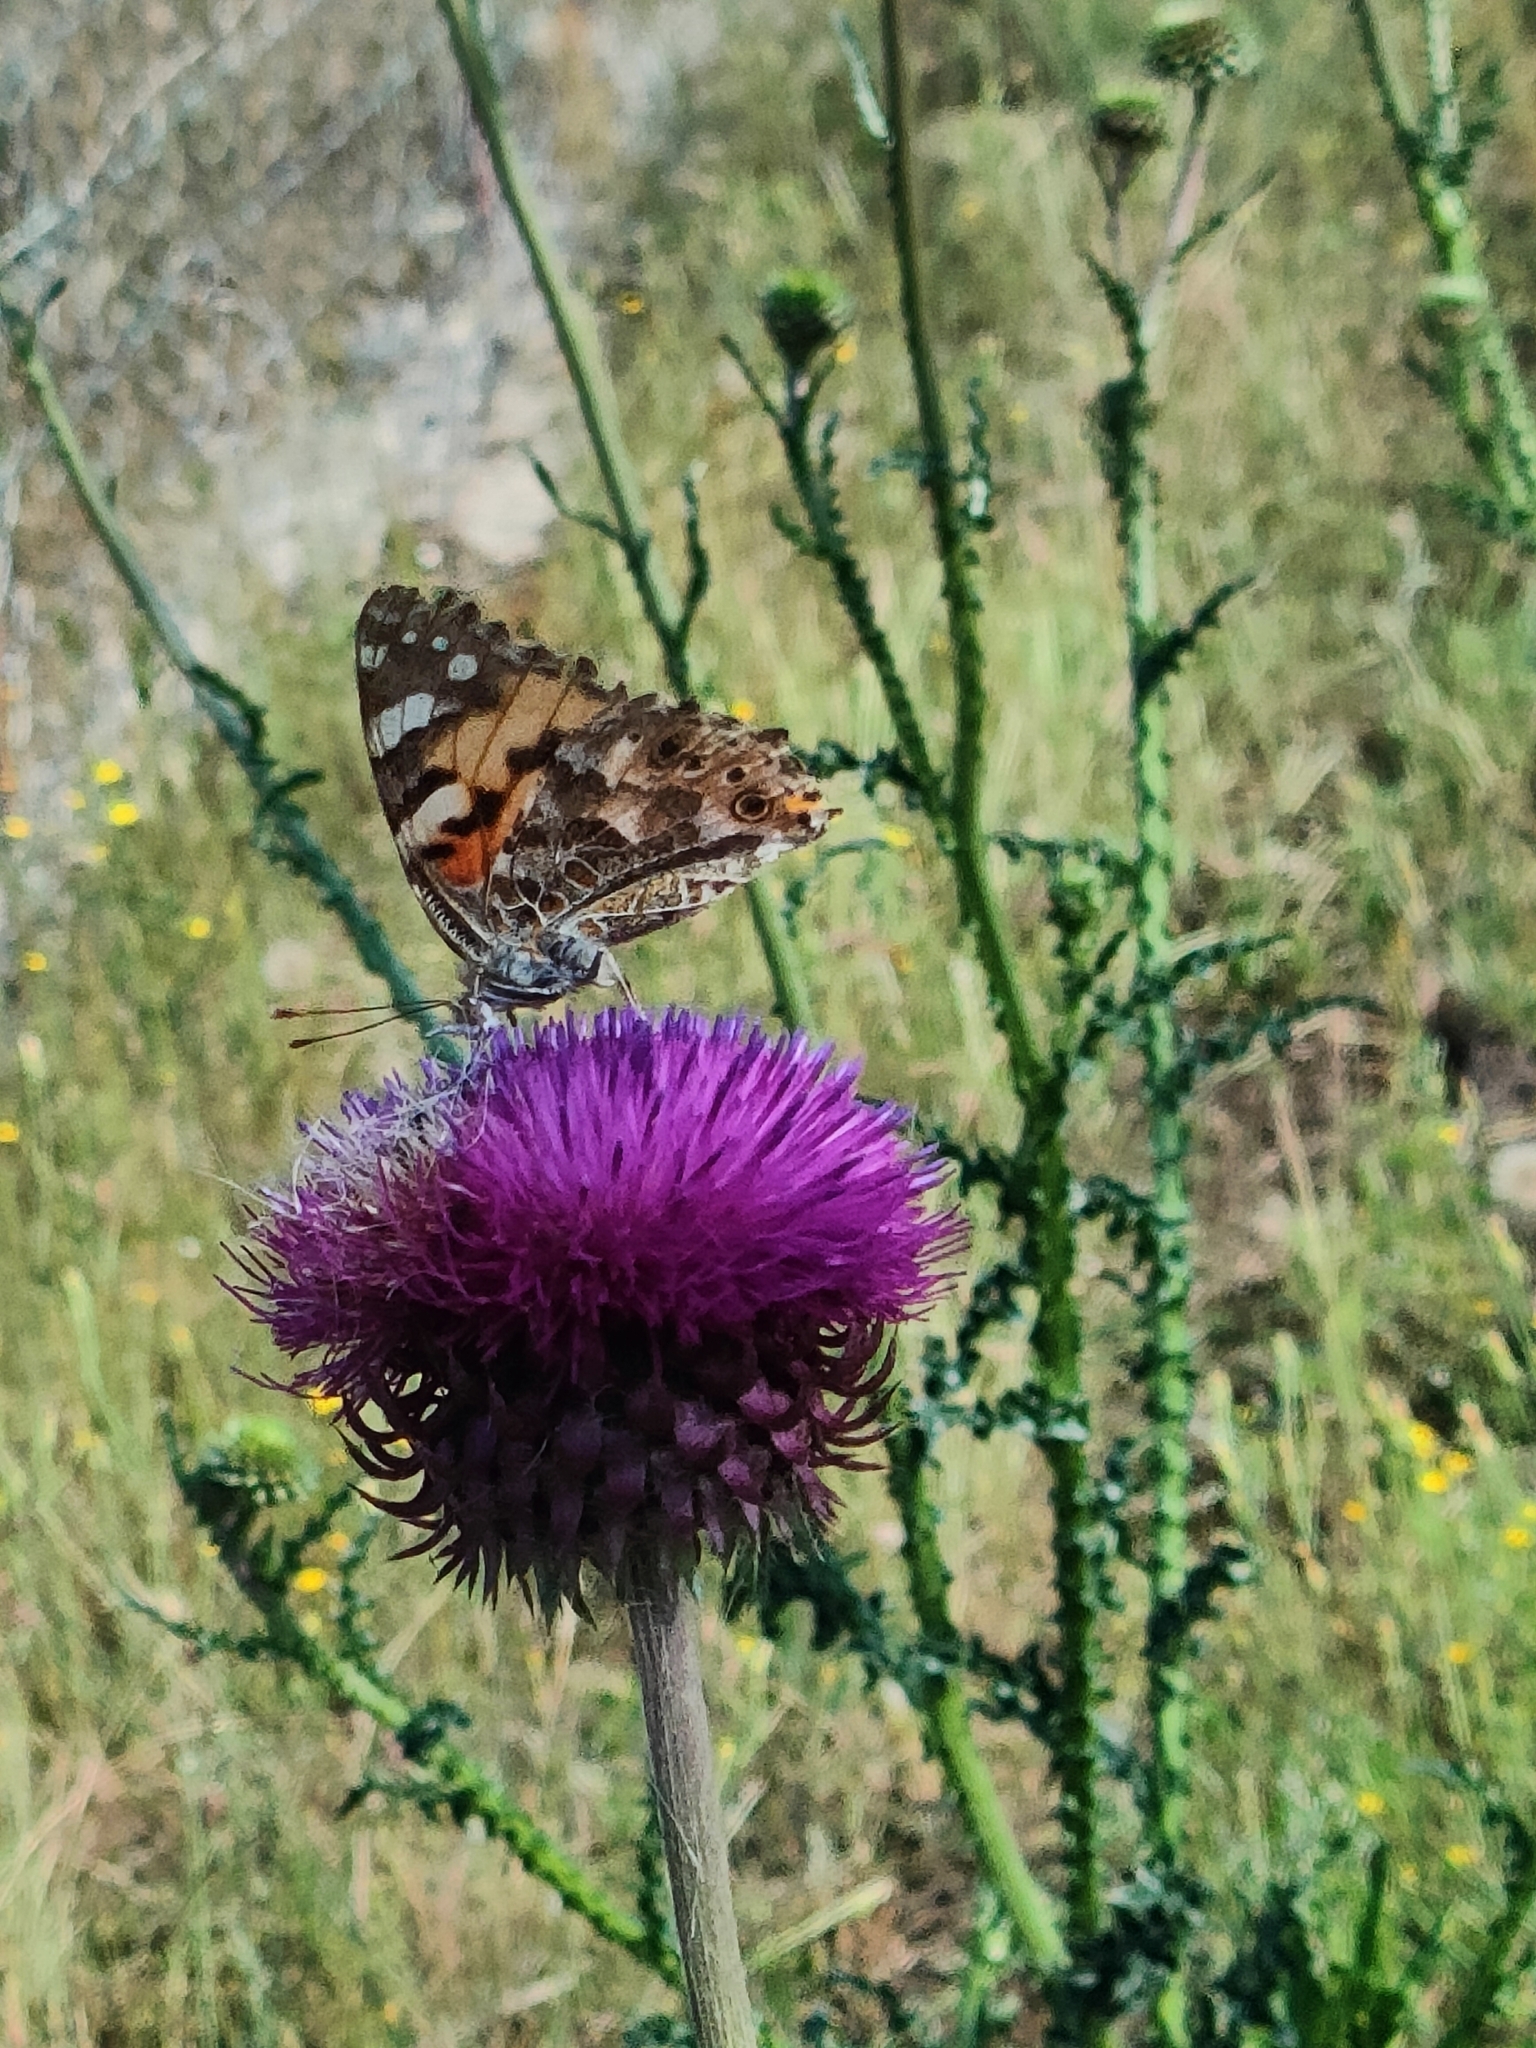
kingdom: Animalia
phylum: Arthropoda
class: Insecta
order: Lepidoptera
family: Nymphalidae
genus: Vanessa
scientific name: Vanessa cardui
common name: Painted lady
